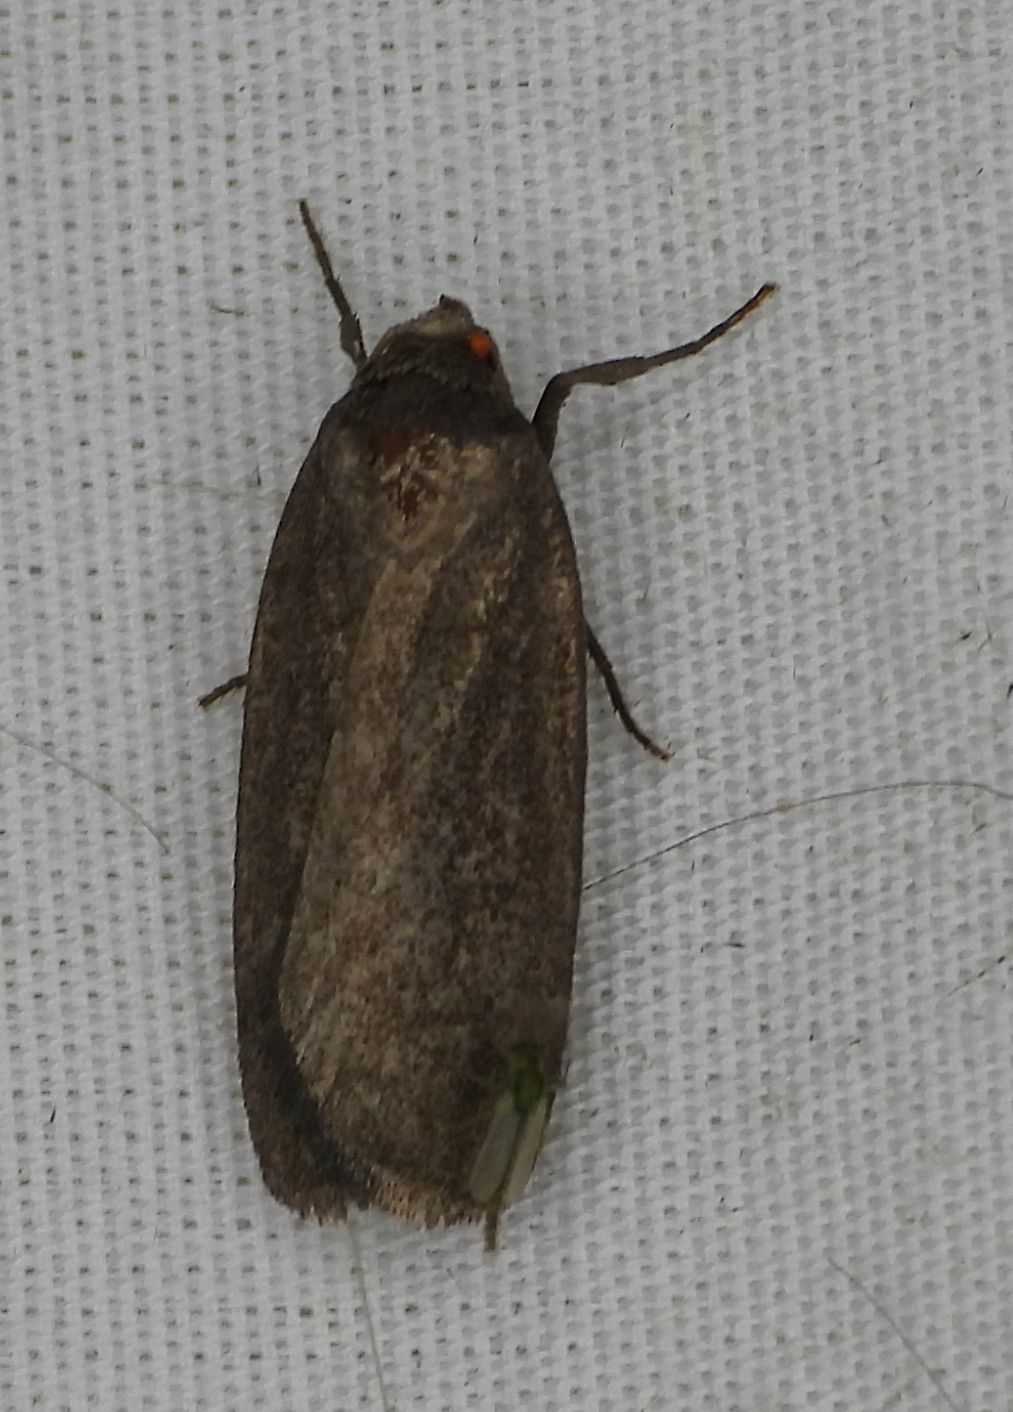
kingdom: Animalia
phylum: Arthropoda
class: Insecta
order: Lepidoptera
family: Noctuidae
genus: Proxenus
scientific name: Proxenus miranda
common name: Miranda moth
